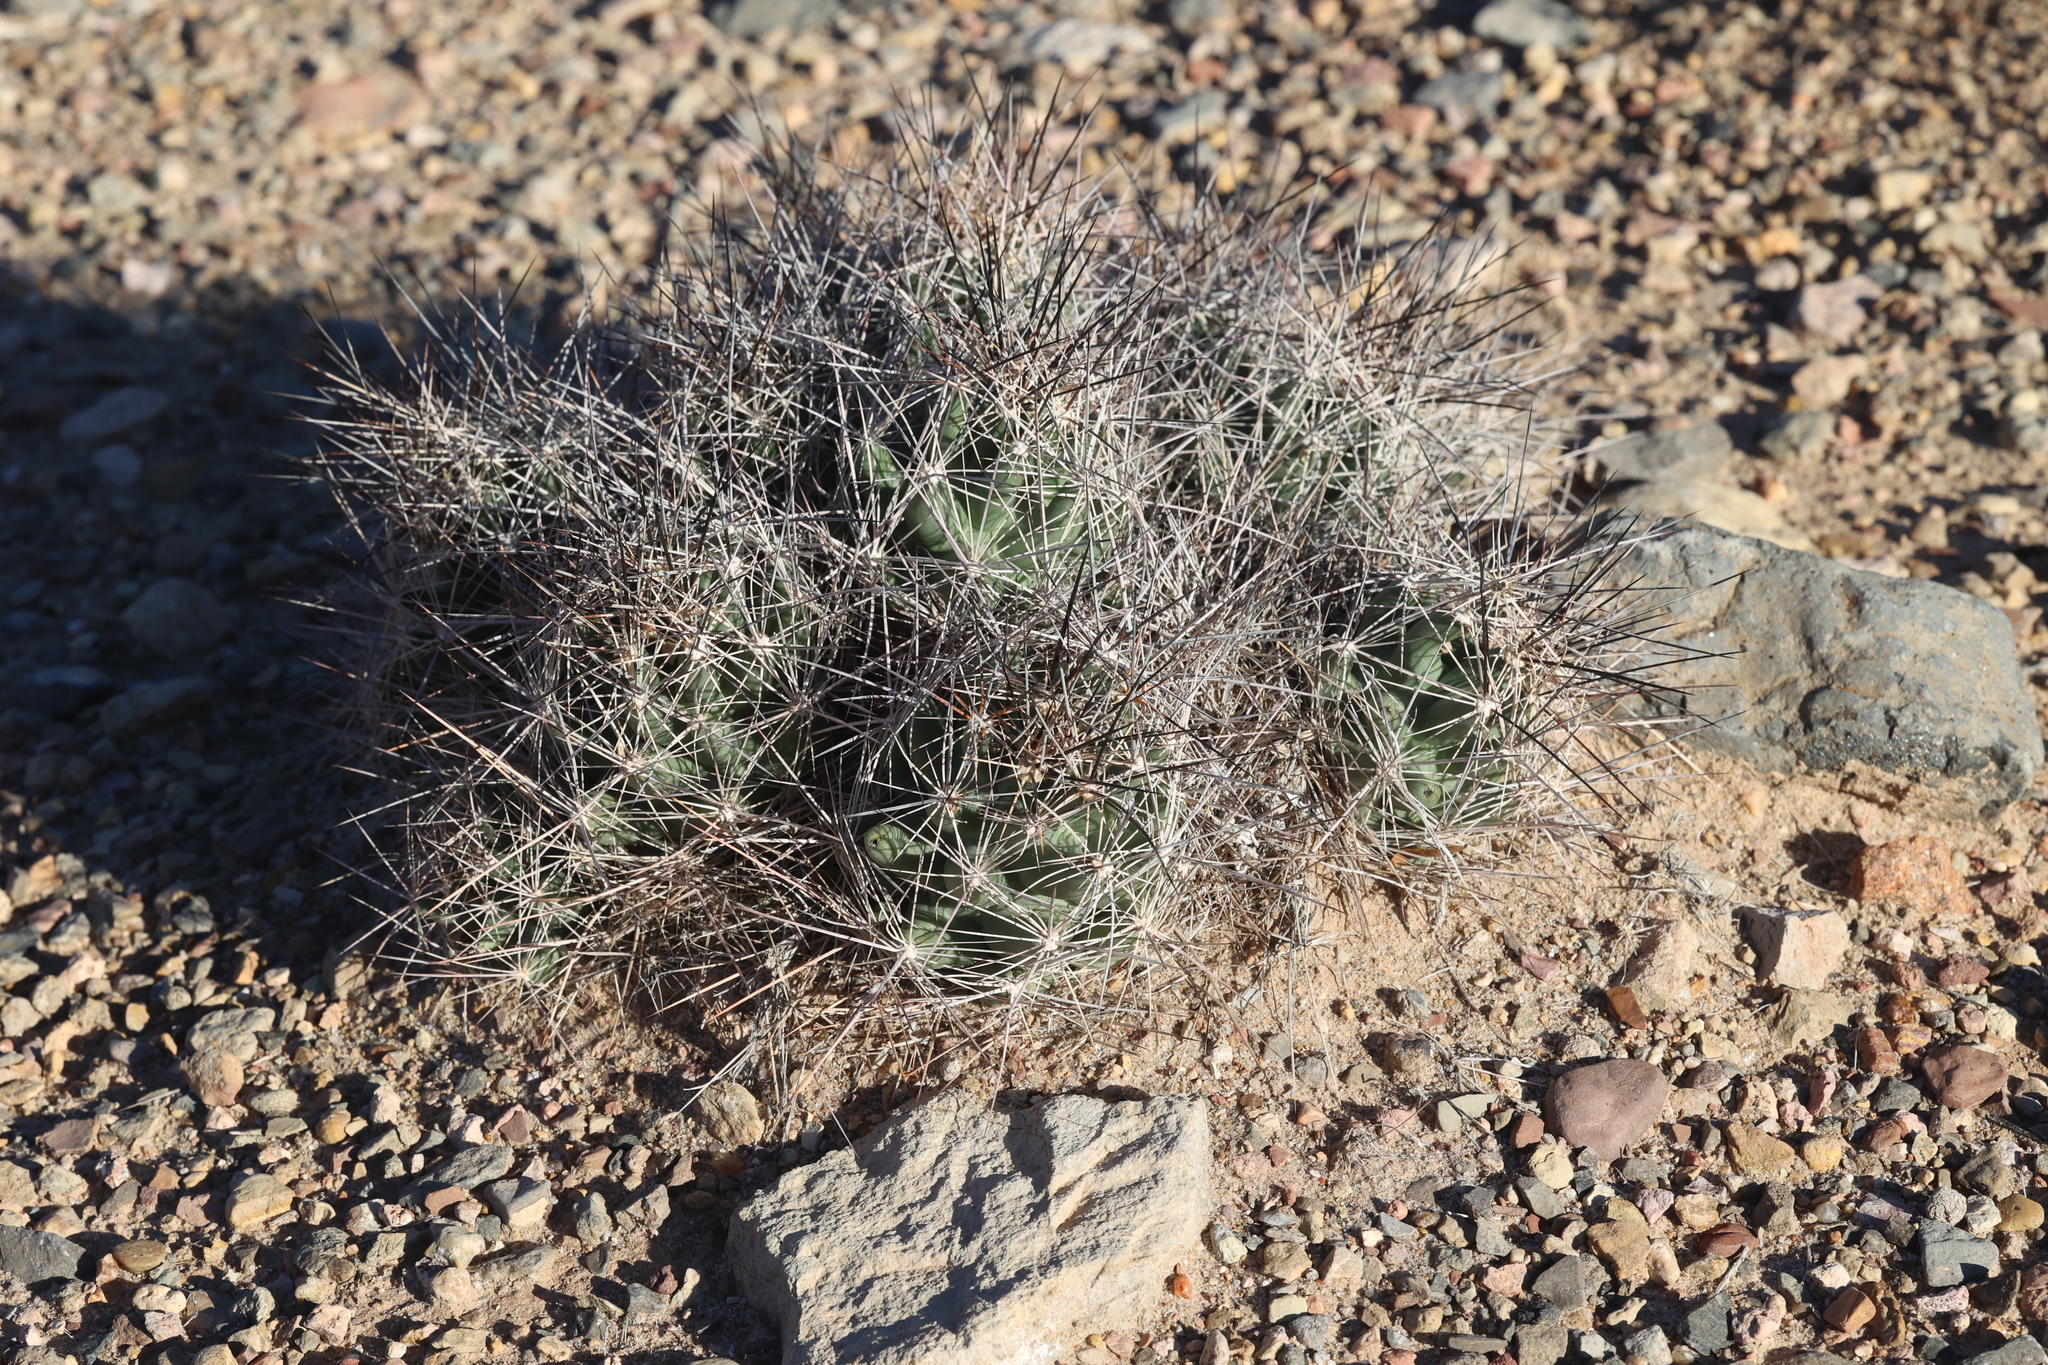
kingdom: Plantae
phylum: Tracheophyta
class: Magnoliopsida
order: Caryophyllales
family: Cactaceae
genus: Coryphantha
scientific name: Coryphantha macromeris
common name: Nipple beehive cactus
